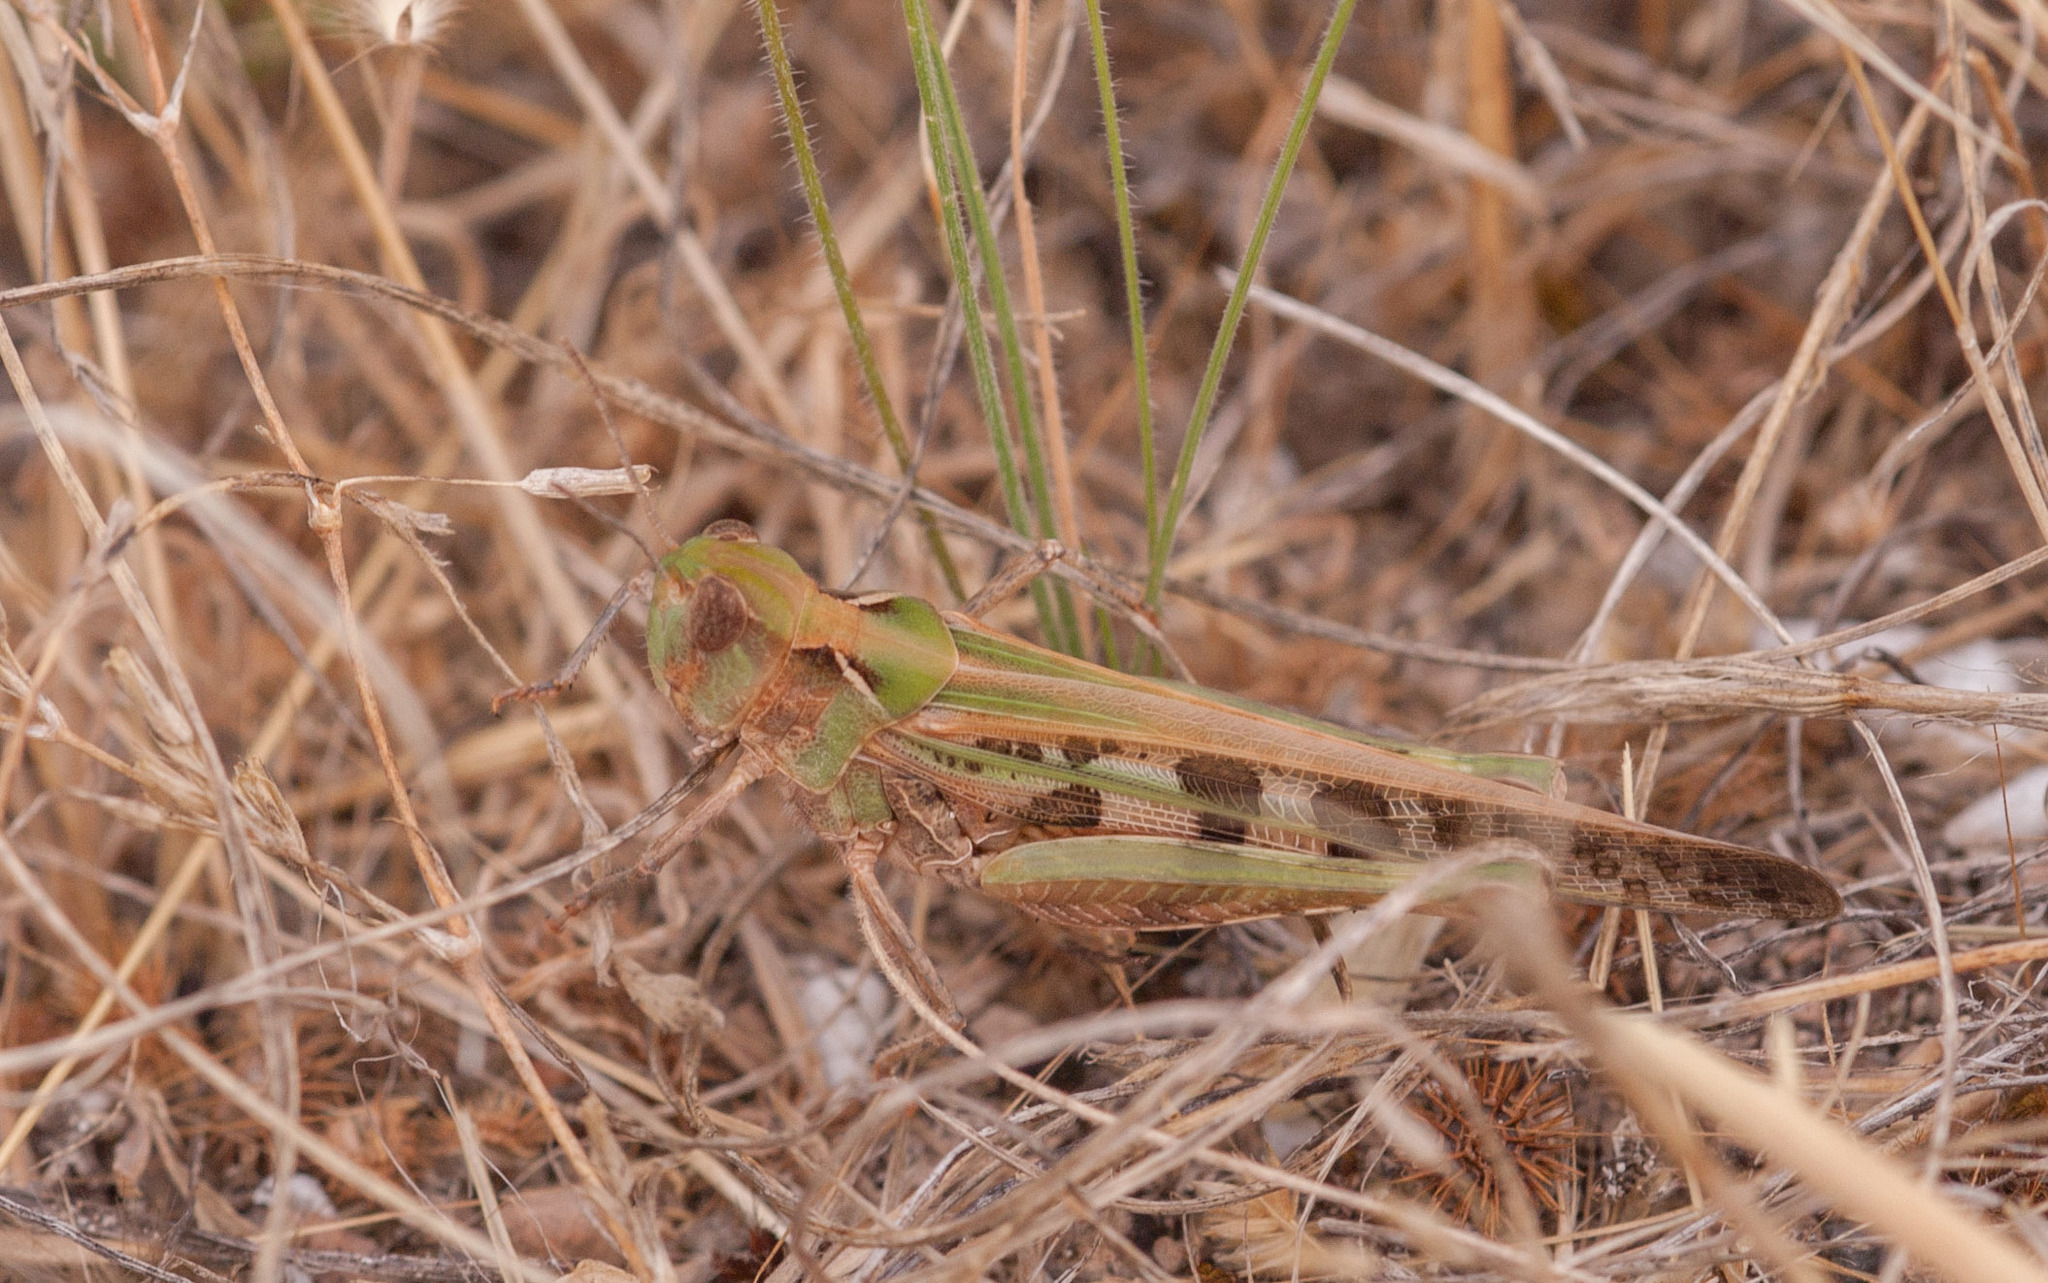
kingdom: Animalia
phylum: Arthropoda
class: Insecta
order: Orthoptera
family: Acrididae
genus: Chortoicetes
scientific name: Chortoicetes terminifera
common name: Australian plague locust
